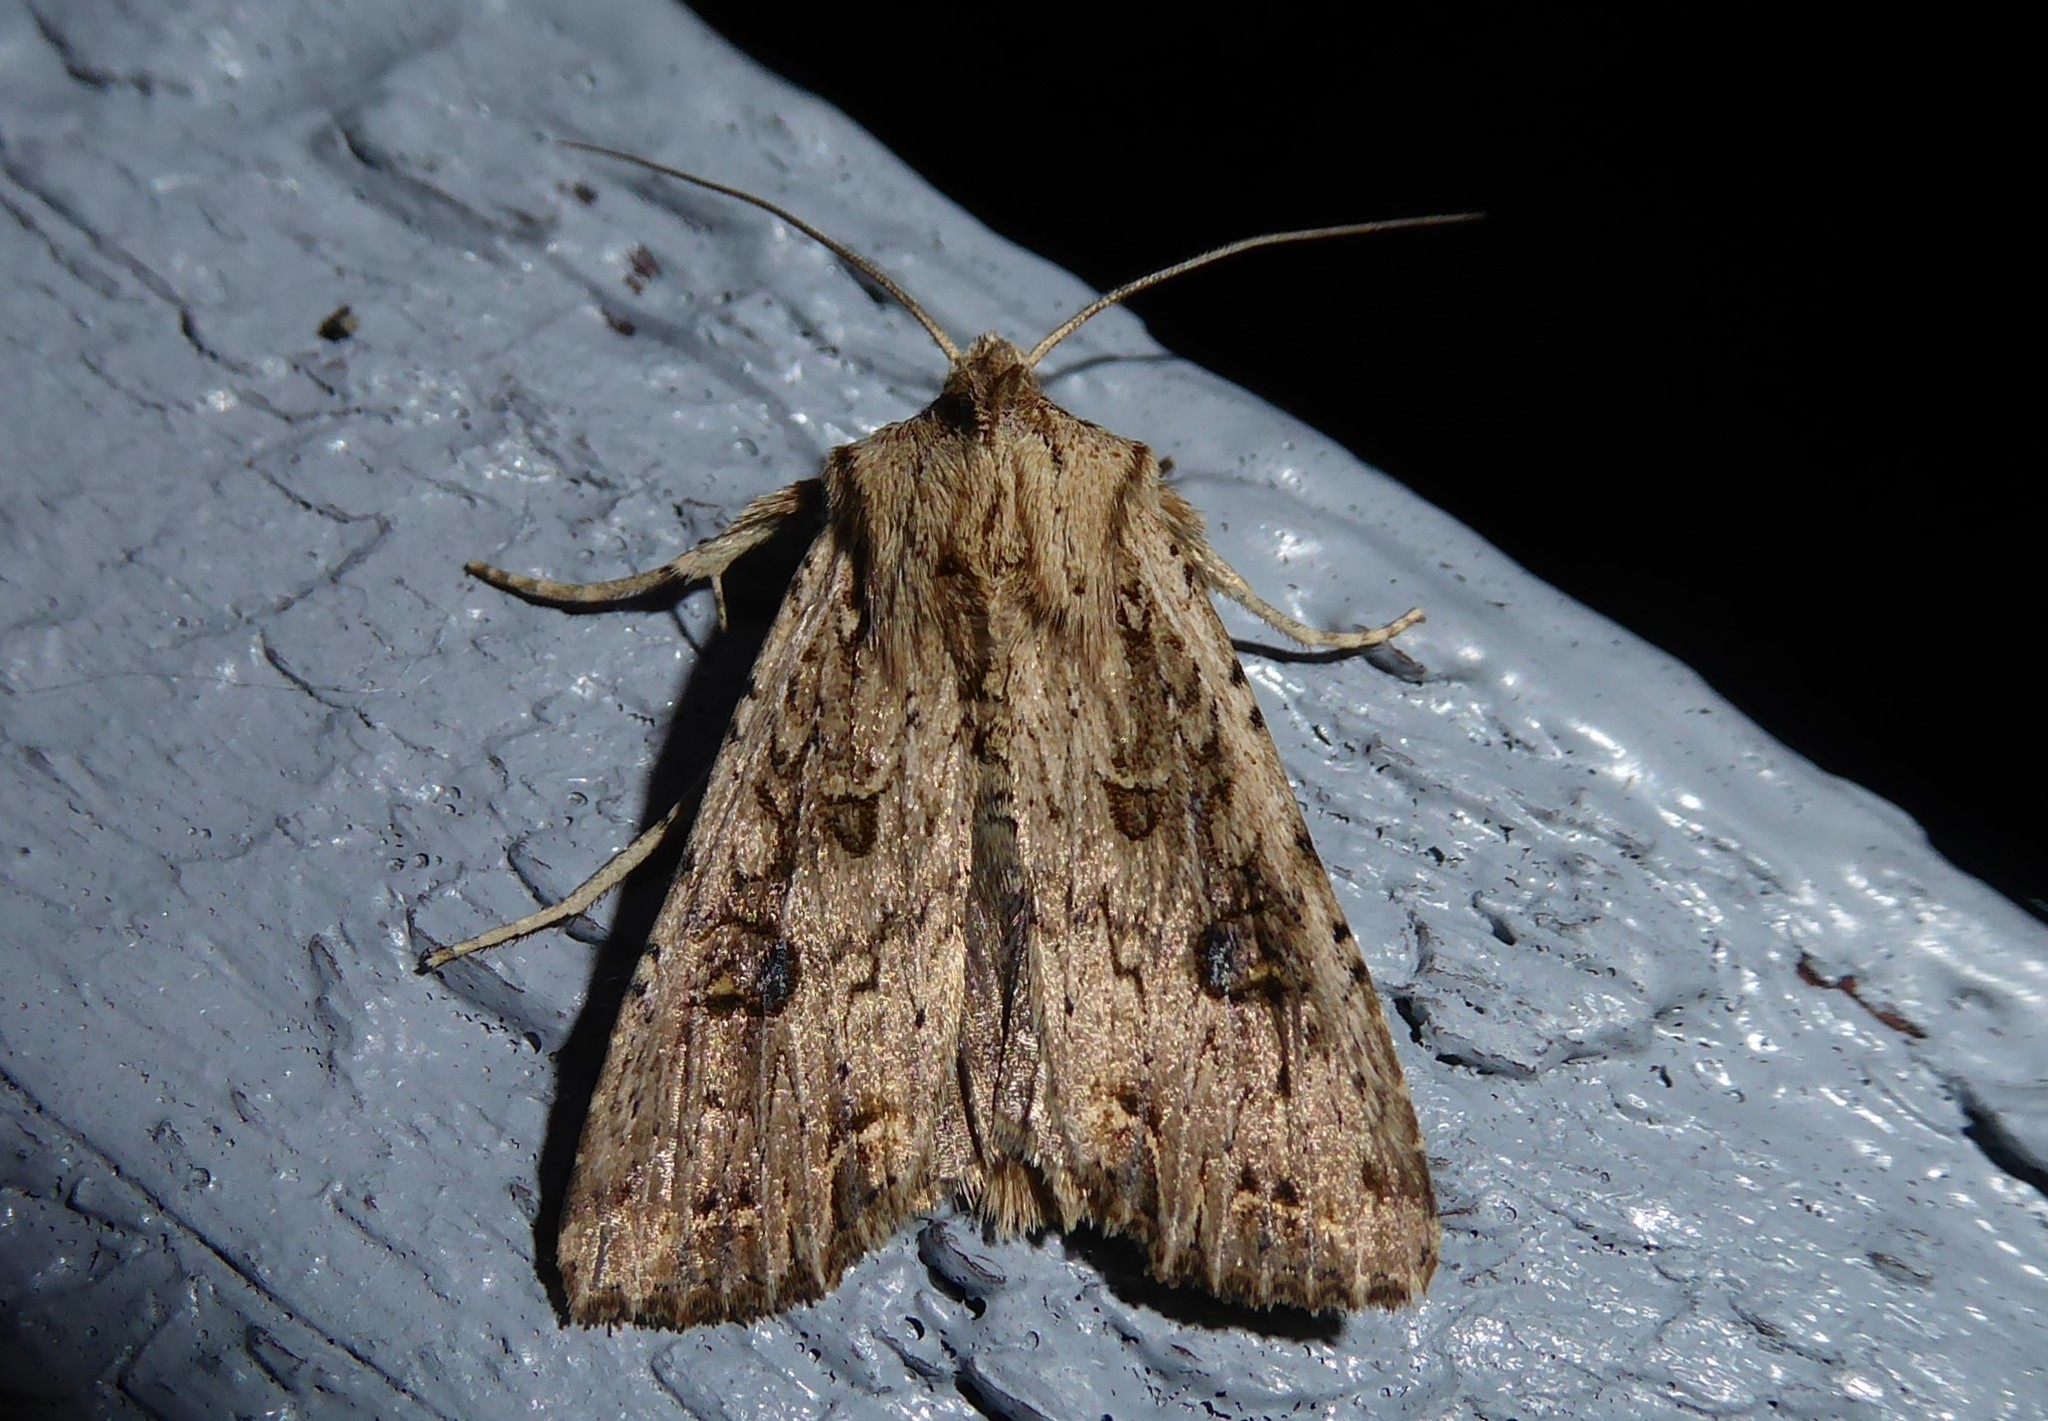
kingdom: Animalia
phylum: Arthropoda
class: Insecta
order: Lepidoptera
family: Noctuidae
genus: Ichneutica
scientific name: Ichneutica lignana
